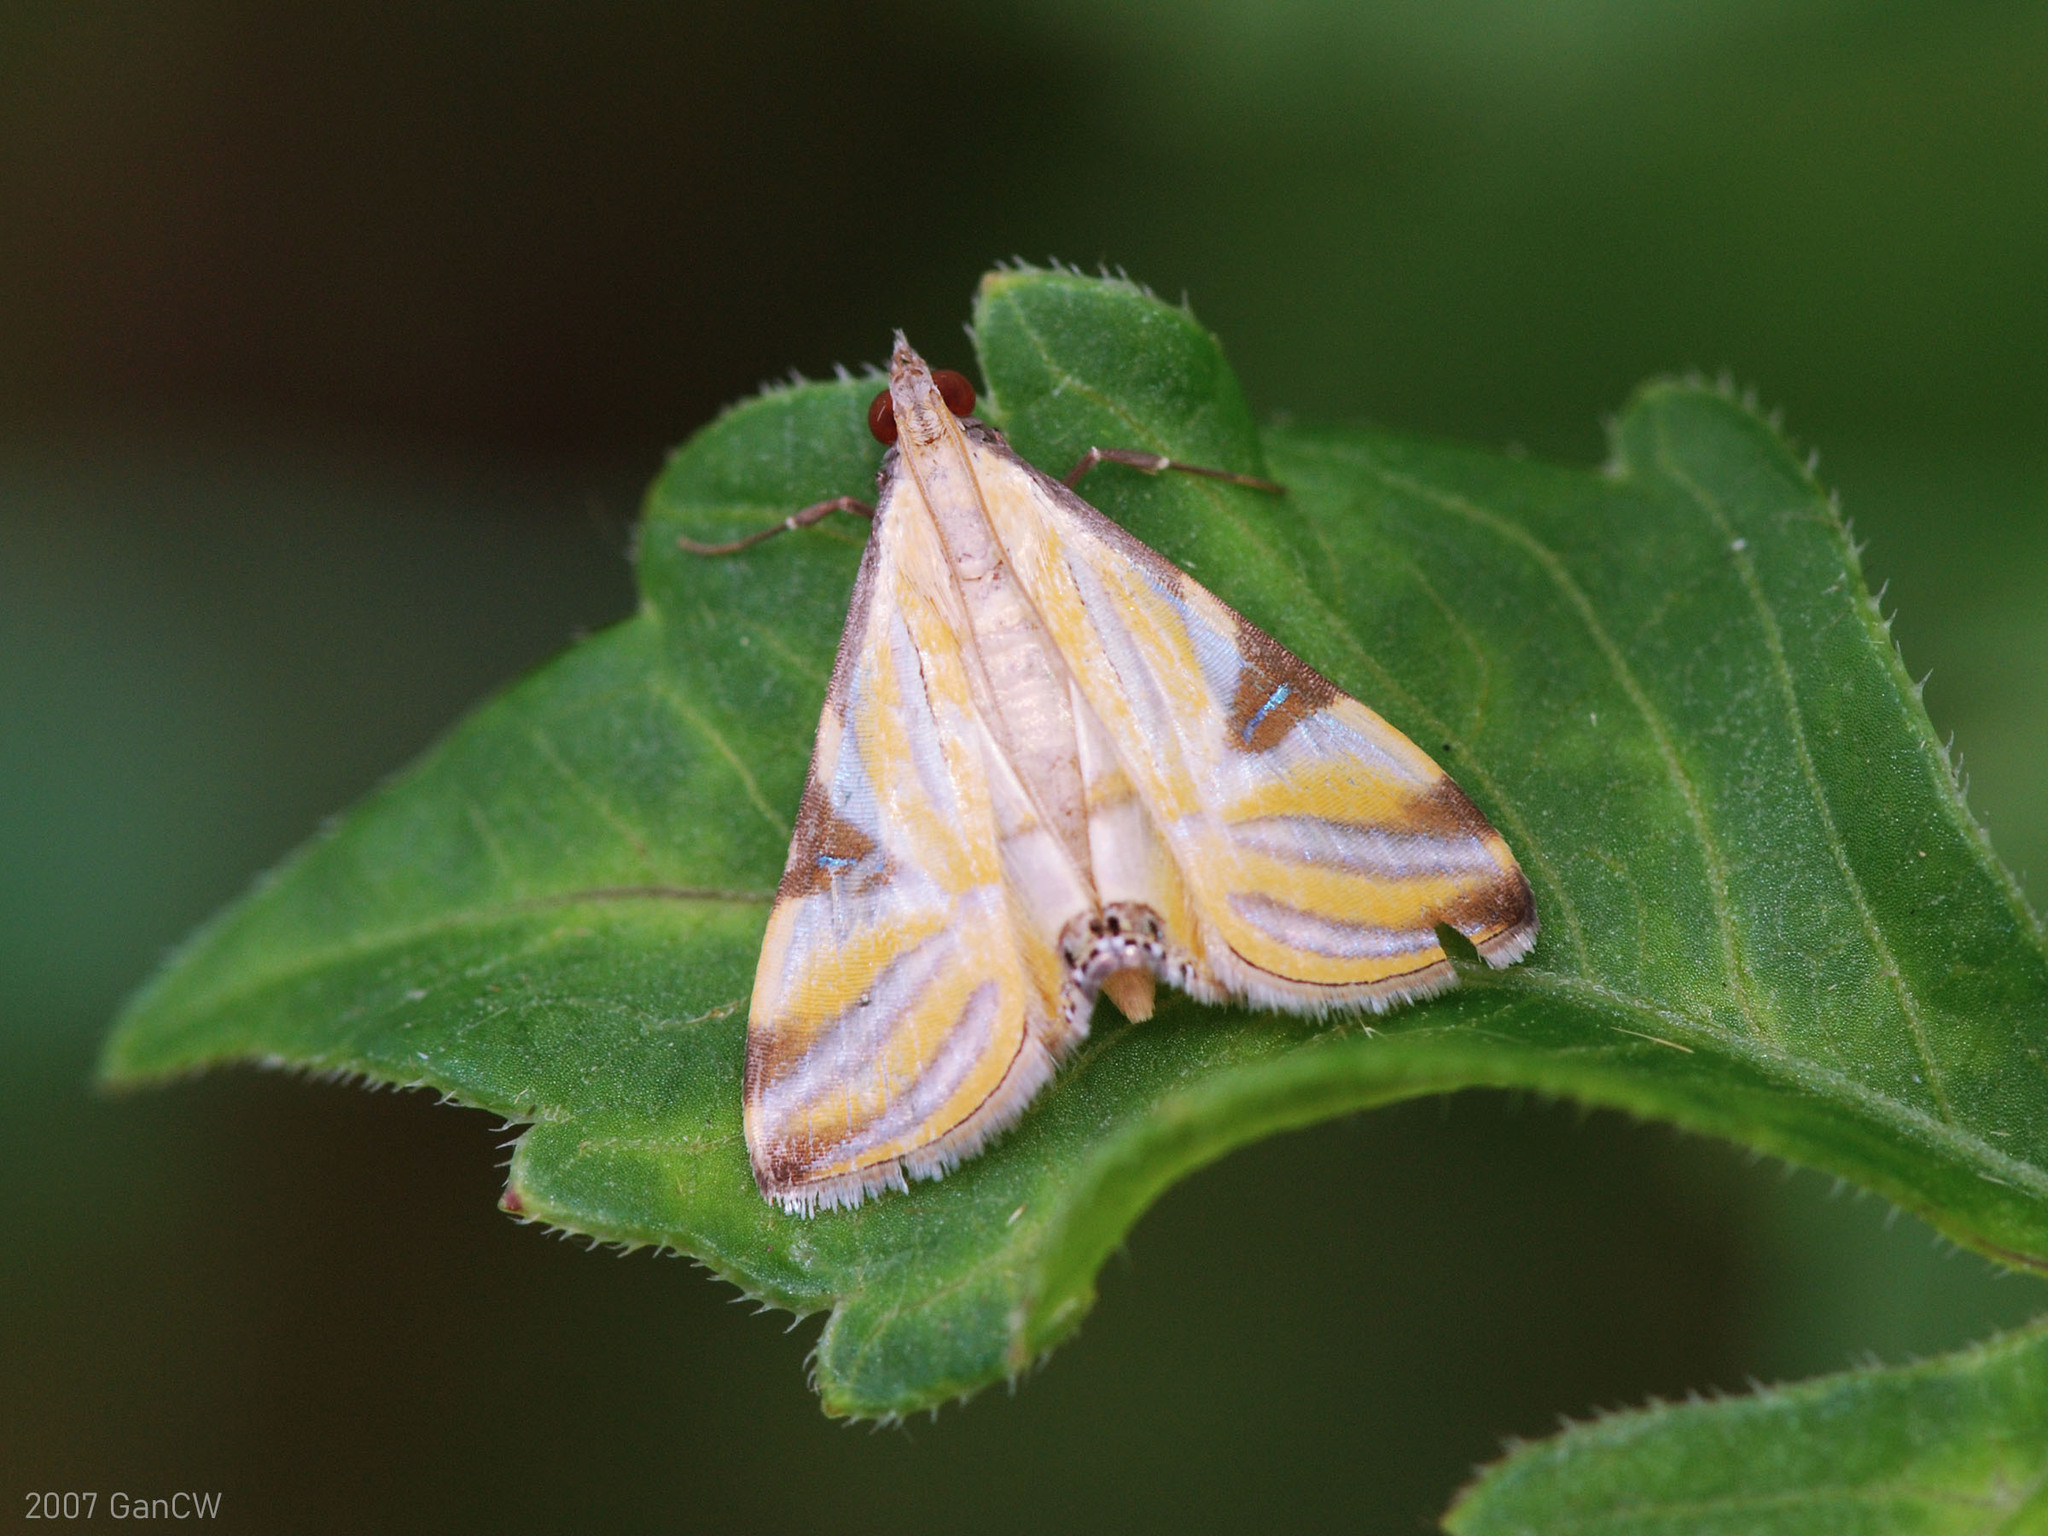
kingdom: Animalia
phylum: Arthropoda
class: Insecta
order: Lepidoptera
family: Crambidae
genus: Talanga
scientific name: Talanga sexpunctalis
